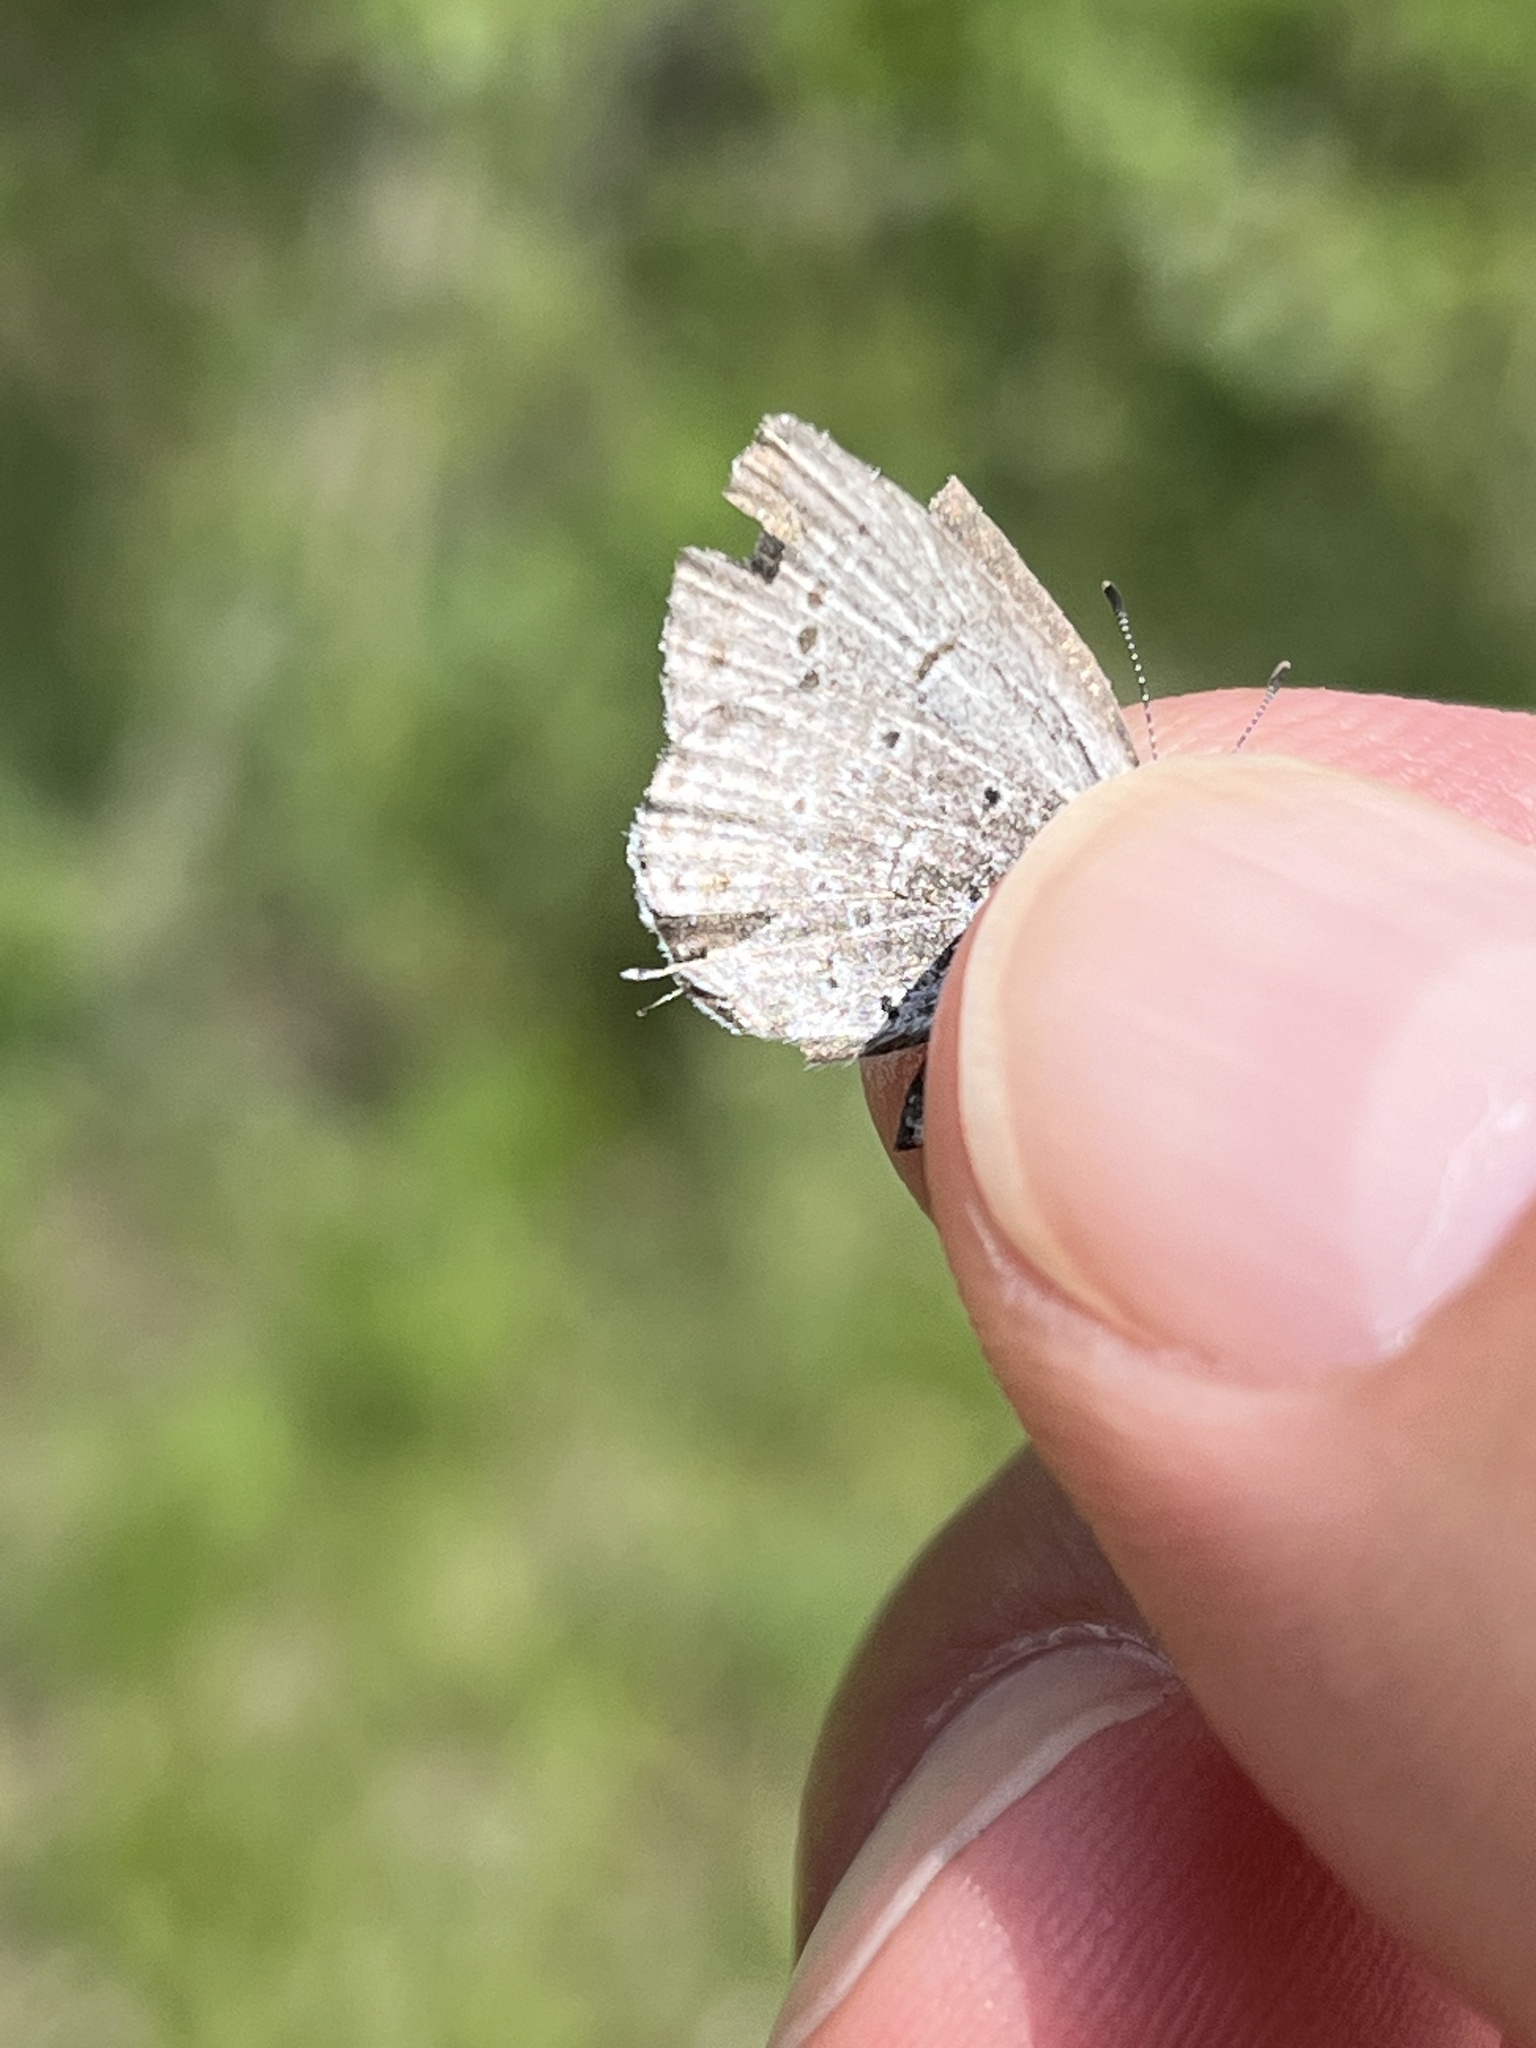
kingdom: Animalia
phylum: Arthropoda
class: Insecta
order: Lepidoptera
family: Lycaenidae
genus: Elkalyce
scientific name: Elkalyce amyntula
